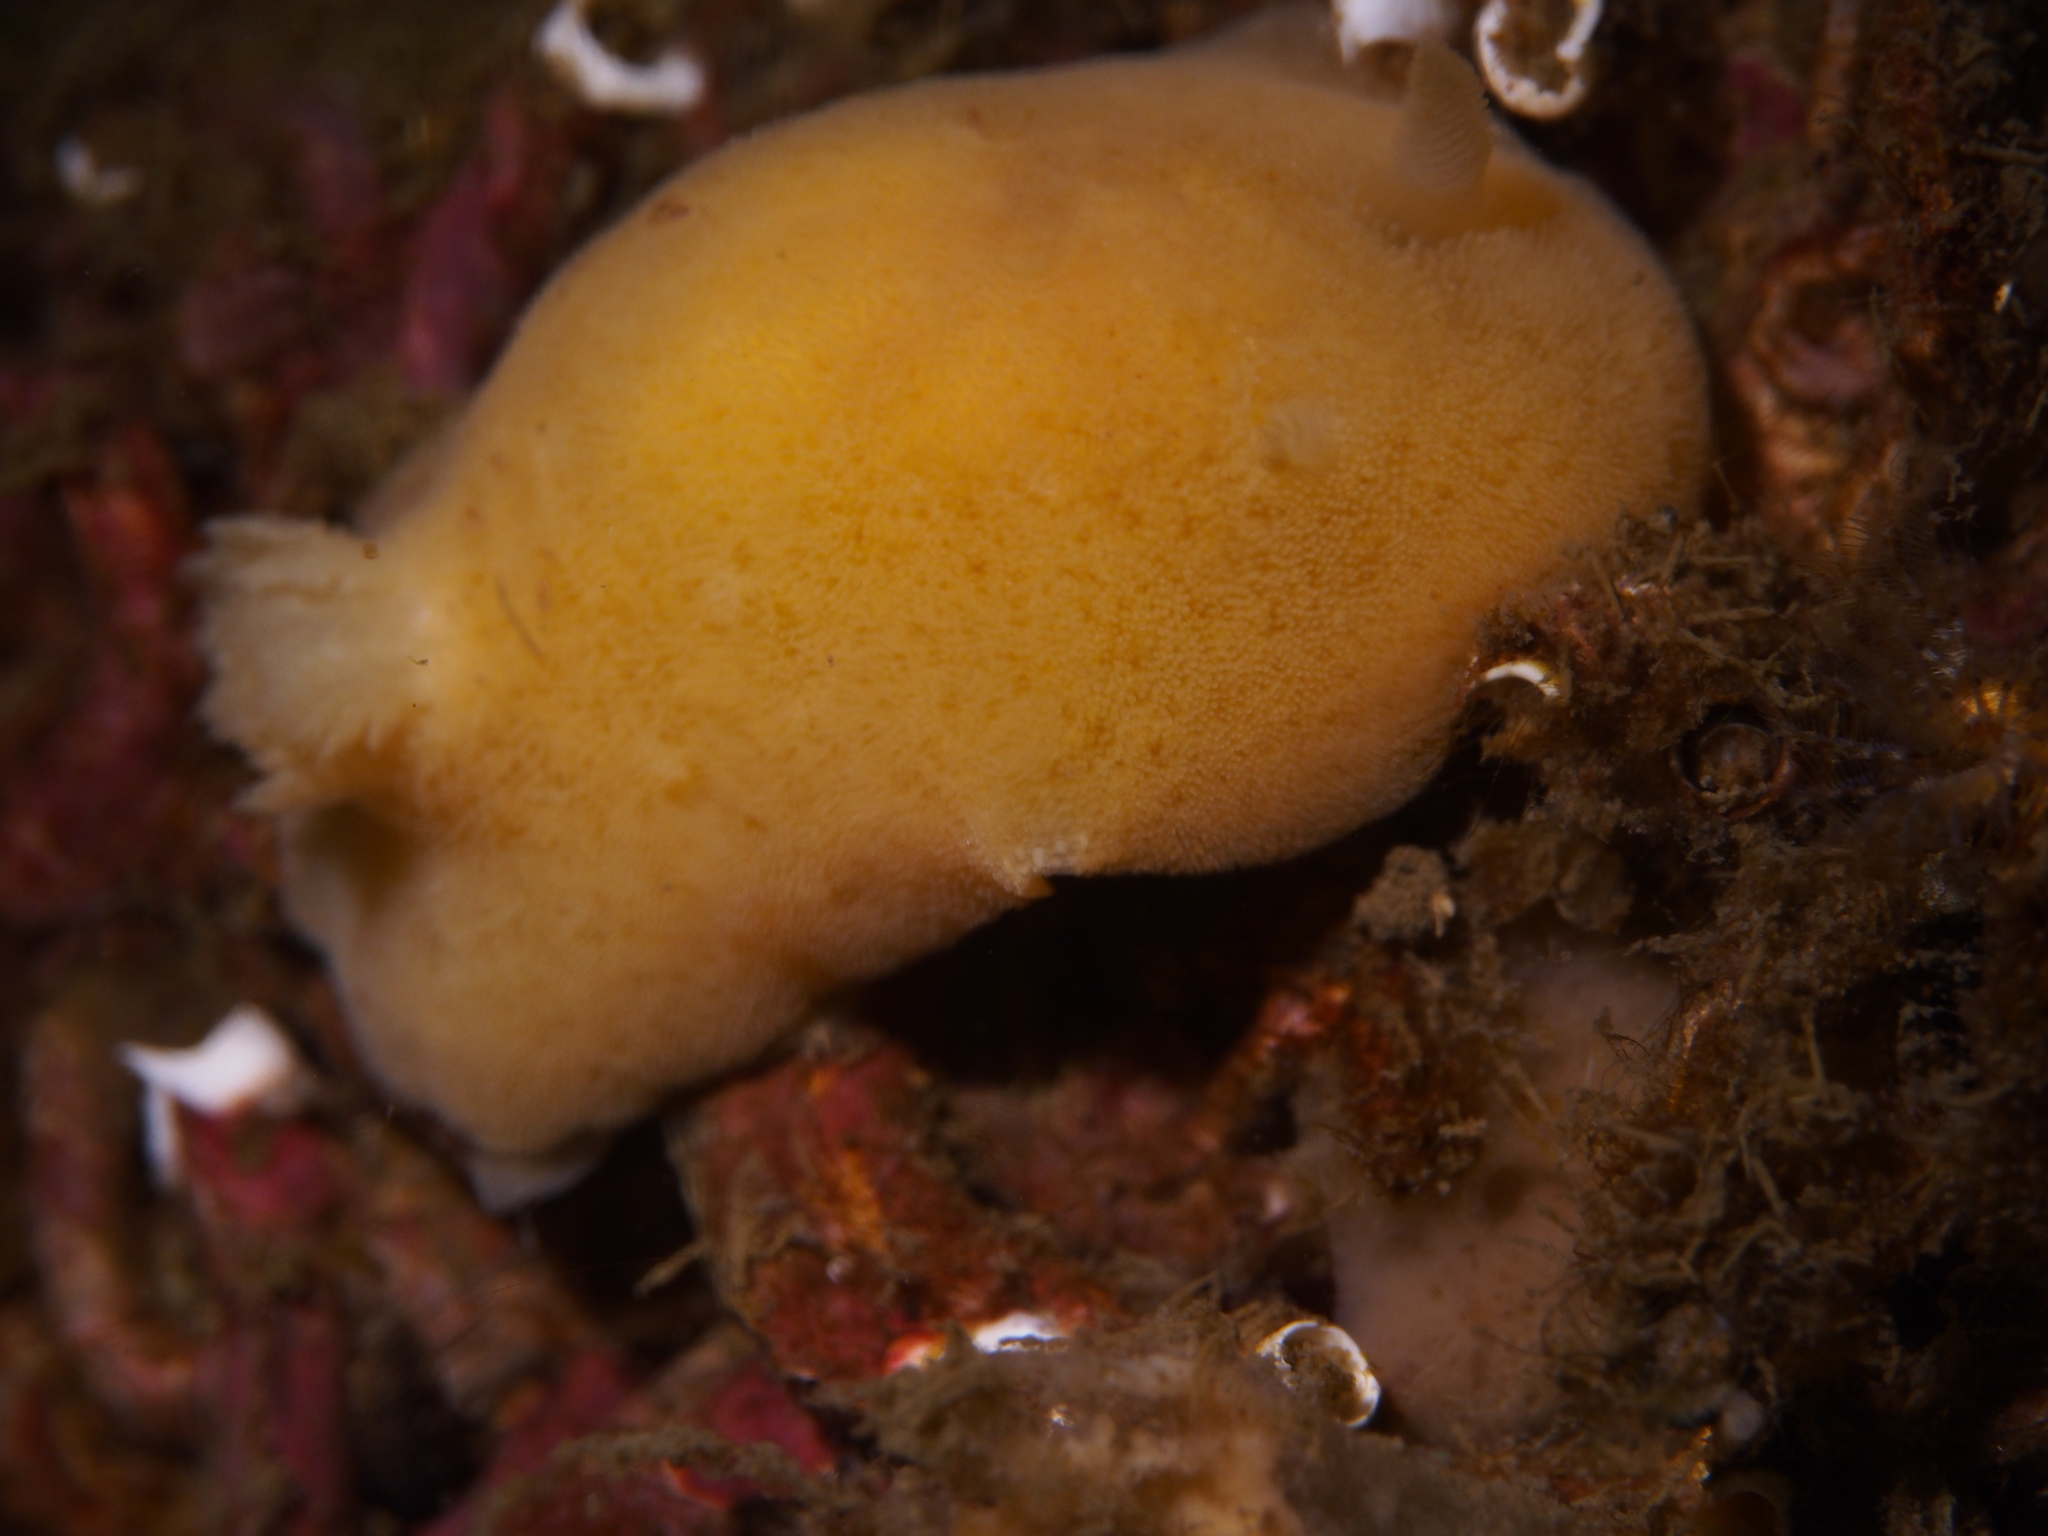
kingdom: Animalia
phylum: Mollusca
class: Gastropoda
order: Nudibranchia
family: Discodorididae
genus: Jorunna
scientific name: Jorunna tomentosa
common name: Grey sea slug
